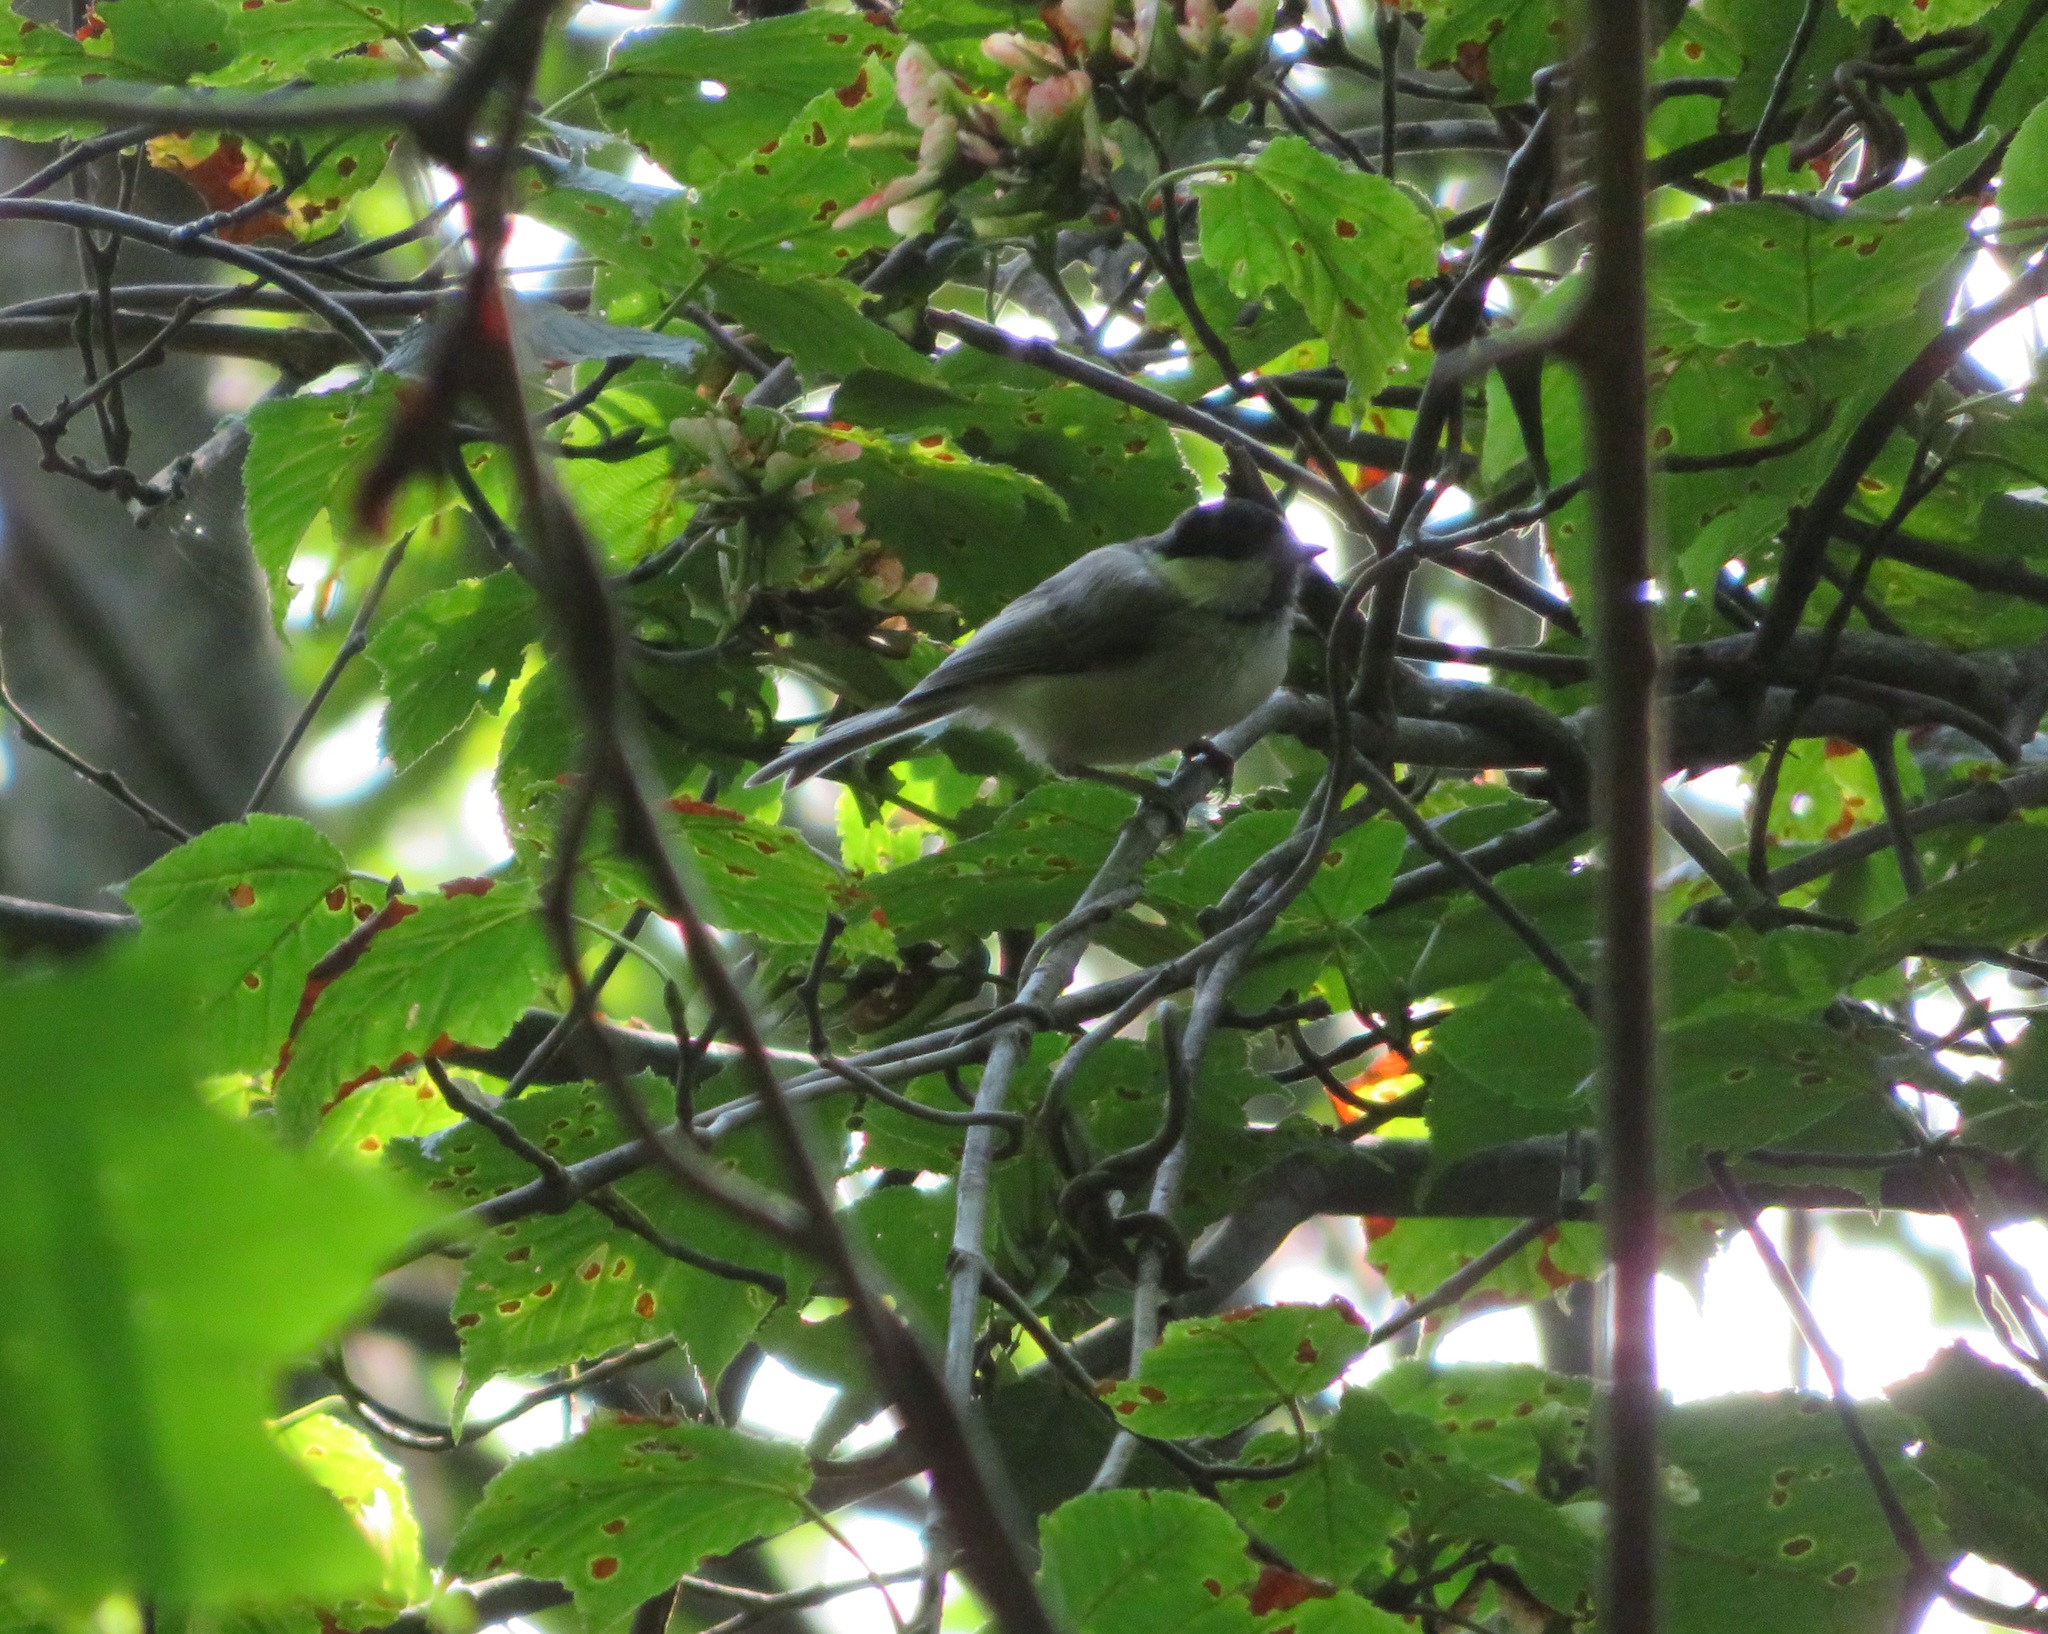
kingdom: Animalia
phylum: Chordata
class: Aves
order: Passeriformes
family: Paridae
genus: Poecile
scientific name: Poecile montanus
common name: Willow tit
